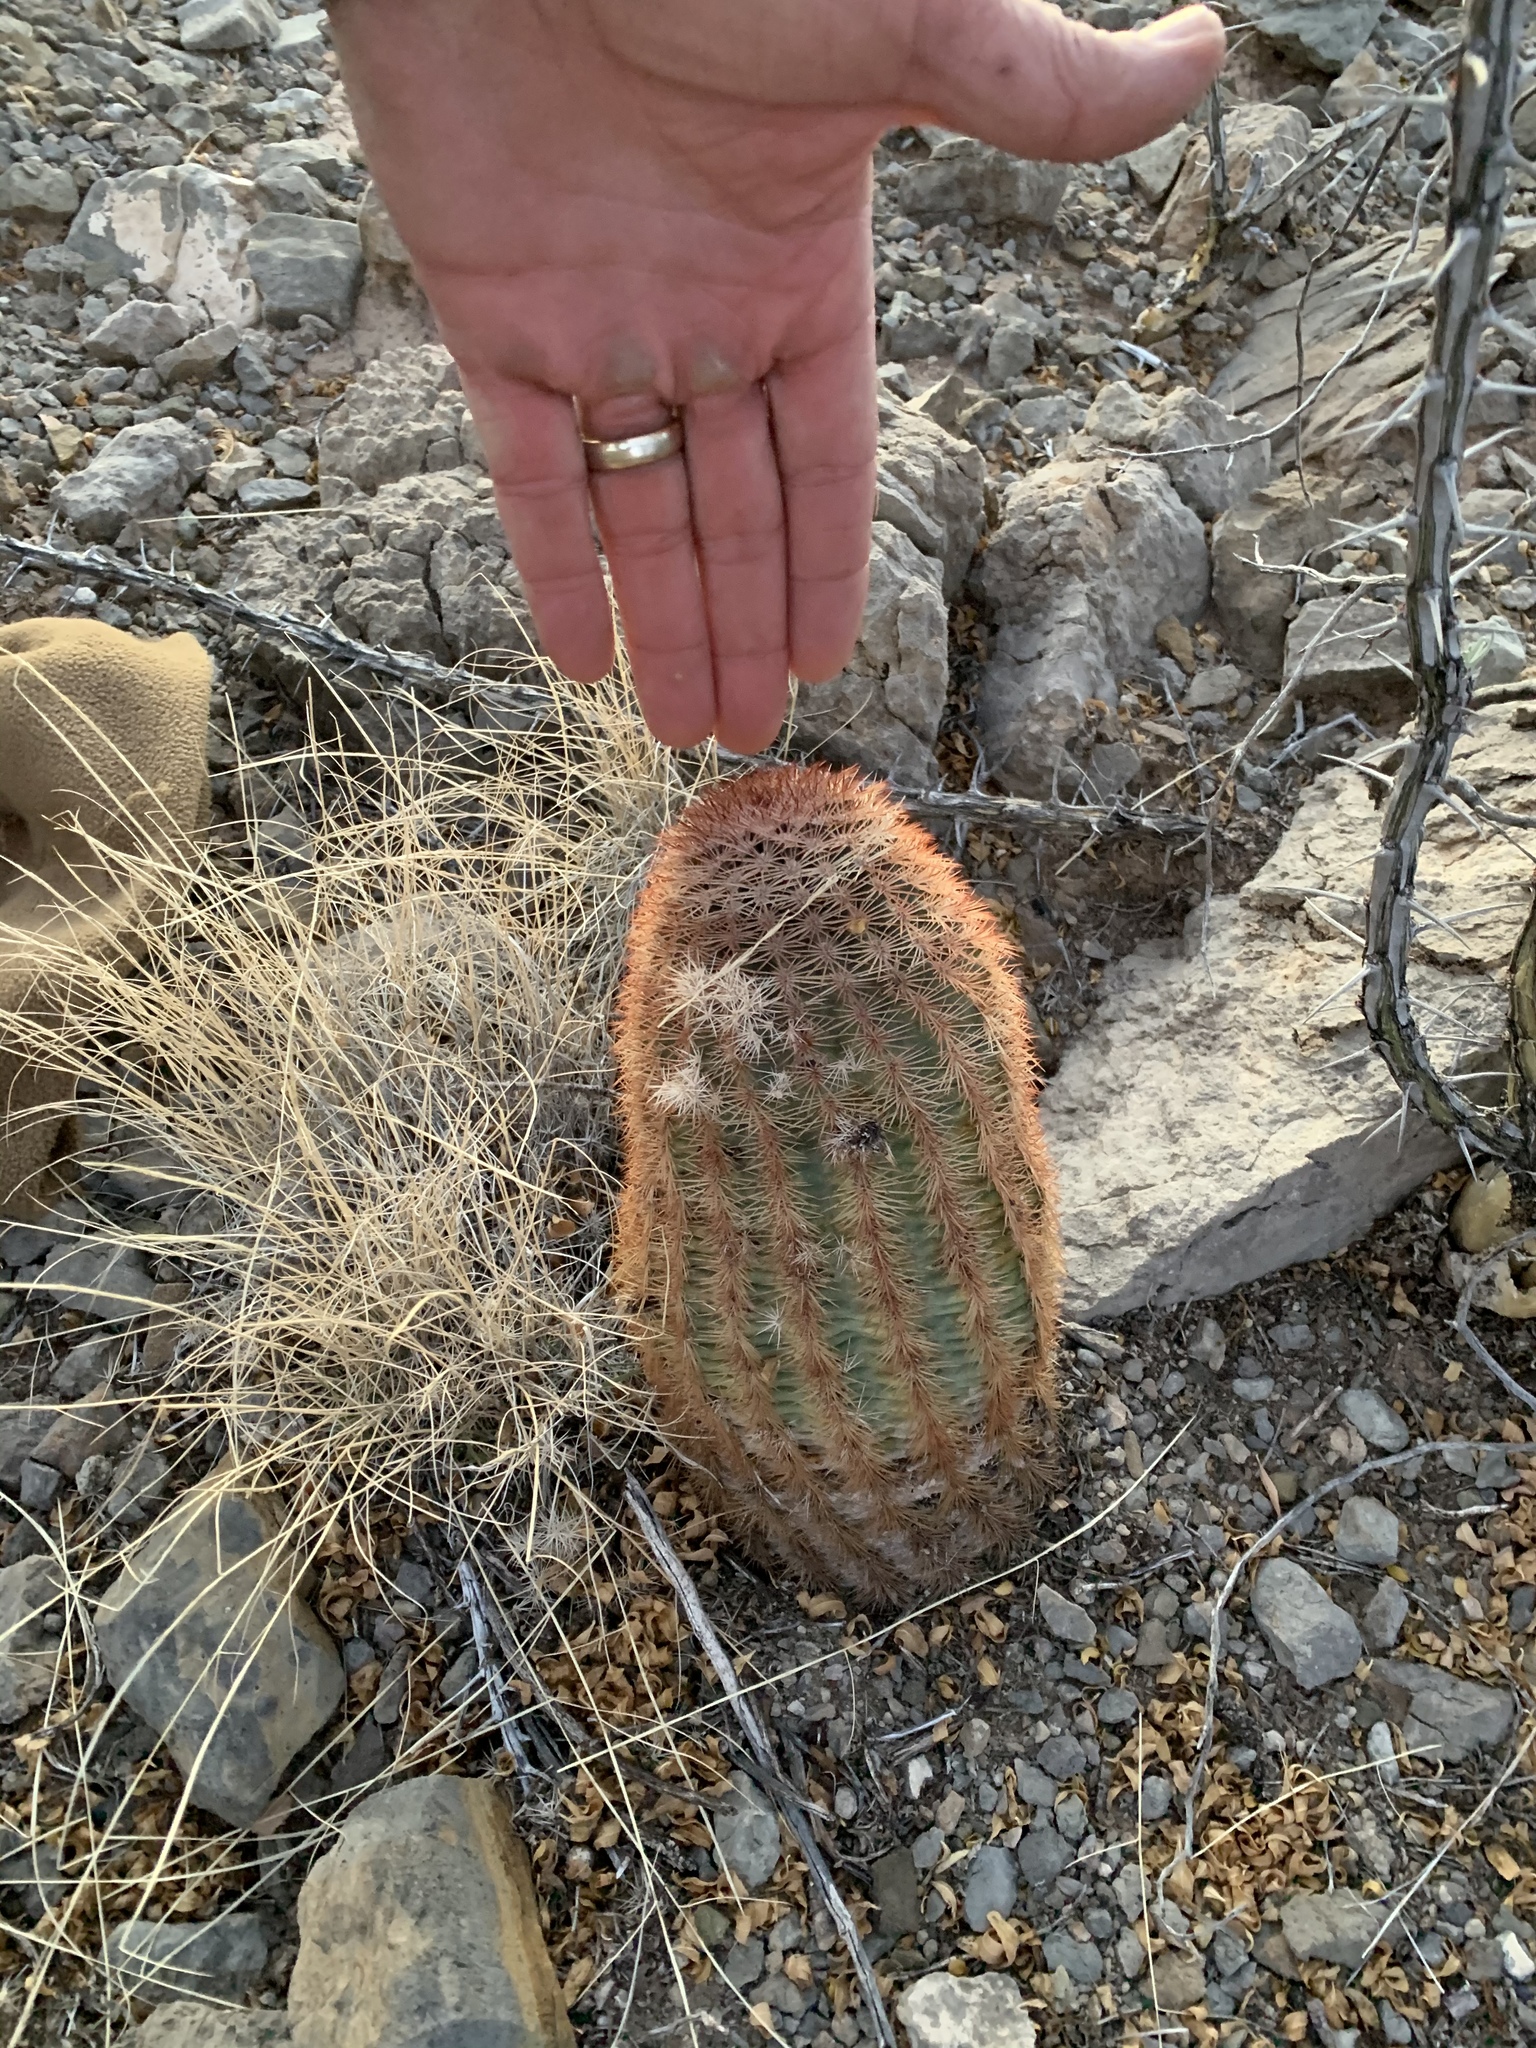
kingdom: Plantae
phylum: Tracheophyta
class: Magnoliopsida
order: Caryophyllales
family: Cactaceae
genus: Echinocereus
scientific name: Echinocereus dasyacanthus
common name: Spiny hedgehog cactus
